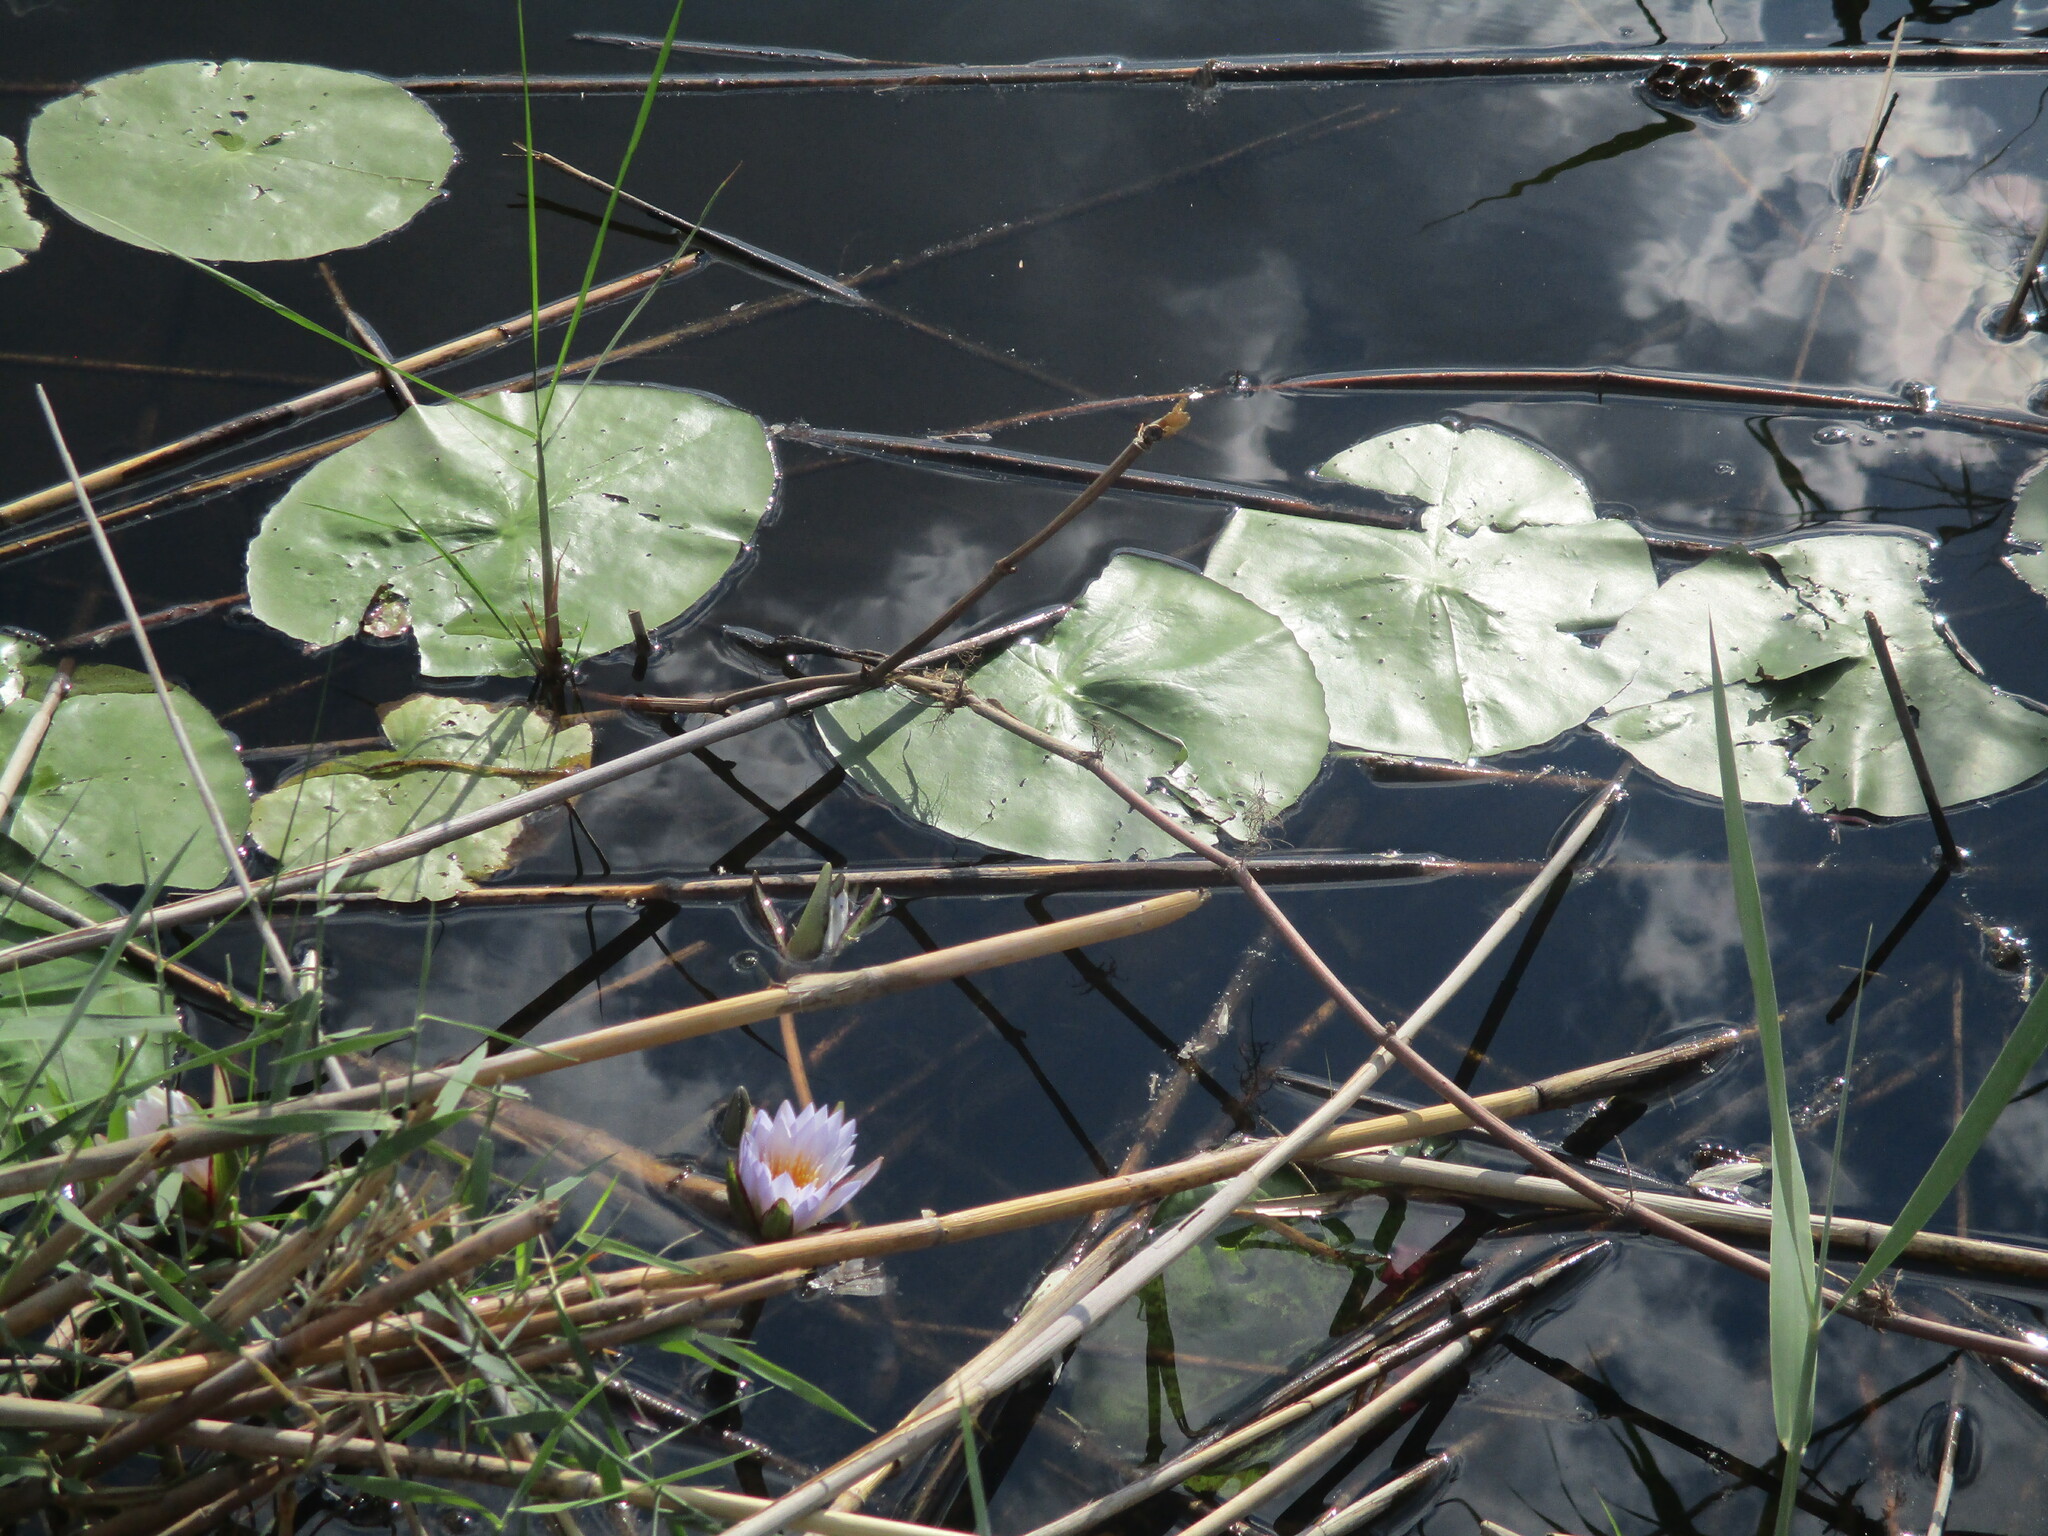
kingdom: Plantae
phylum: Tracheophyta
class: Magnoliopsida
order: Nymphaeales
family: Nymphaeaceae
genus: Nymphaea
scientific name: Nymphaea nouchali
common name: Blue lotus
